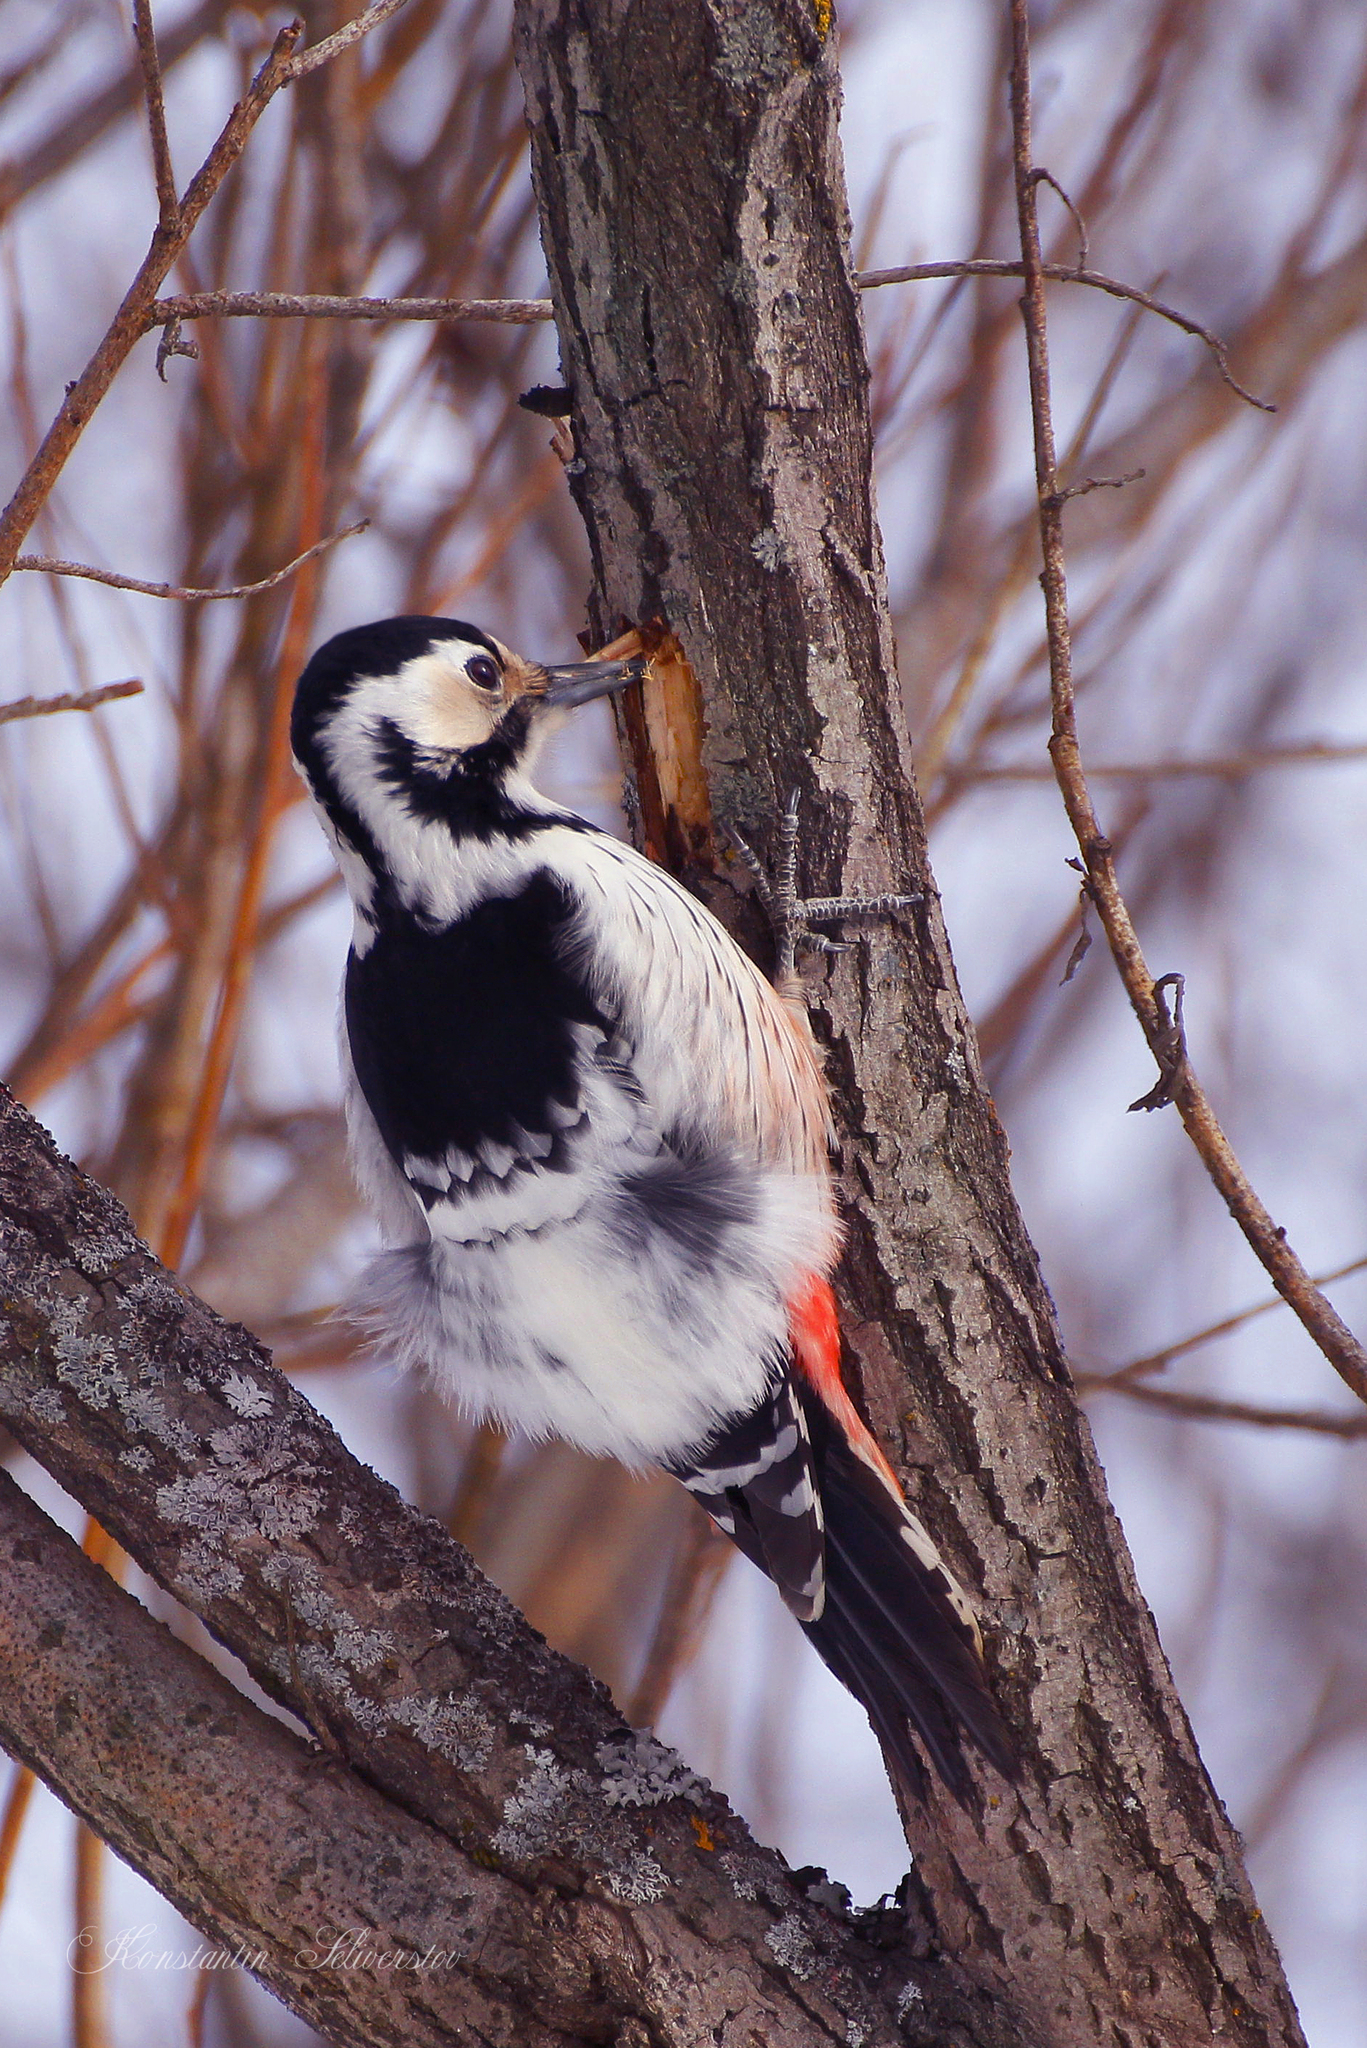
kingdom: Animalia
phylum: Chordata
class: Aves
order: Piciformes
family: Picidae
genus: Dendrocopos
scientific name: Dendrocopos leucotos
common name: White-backed woodpecker
